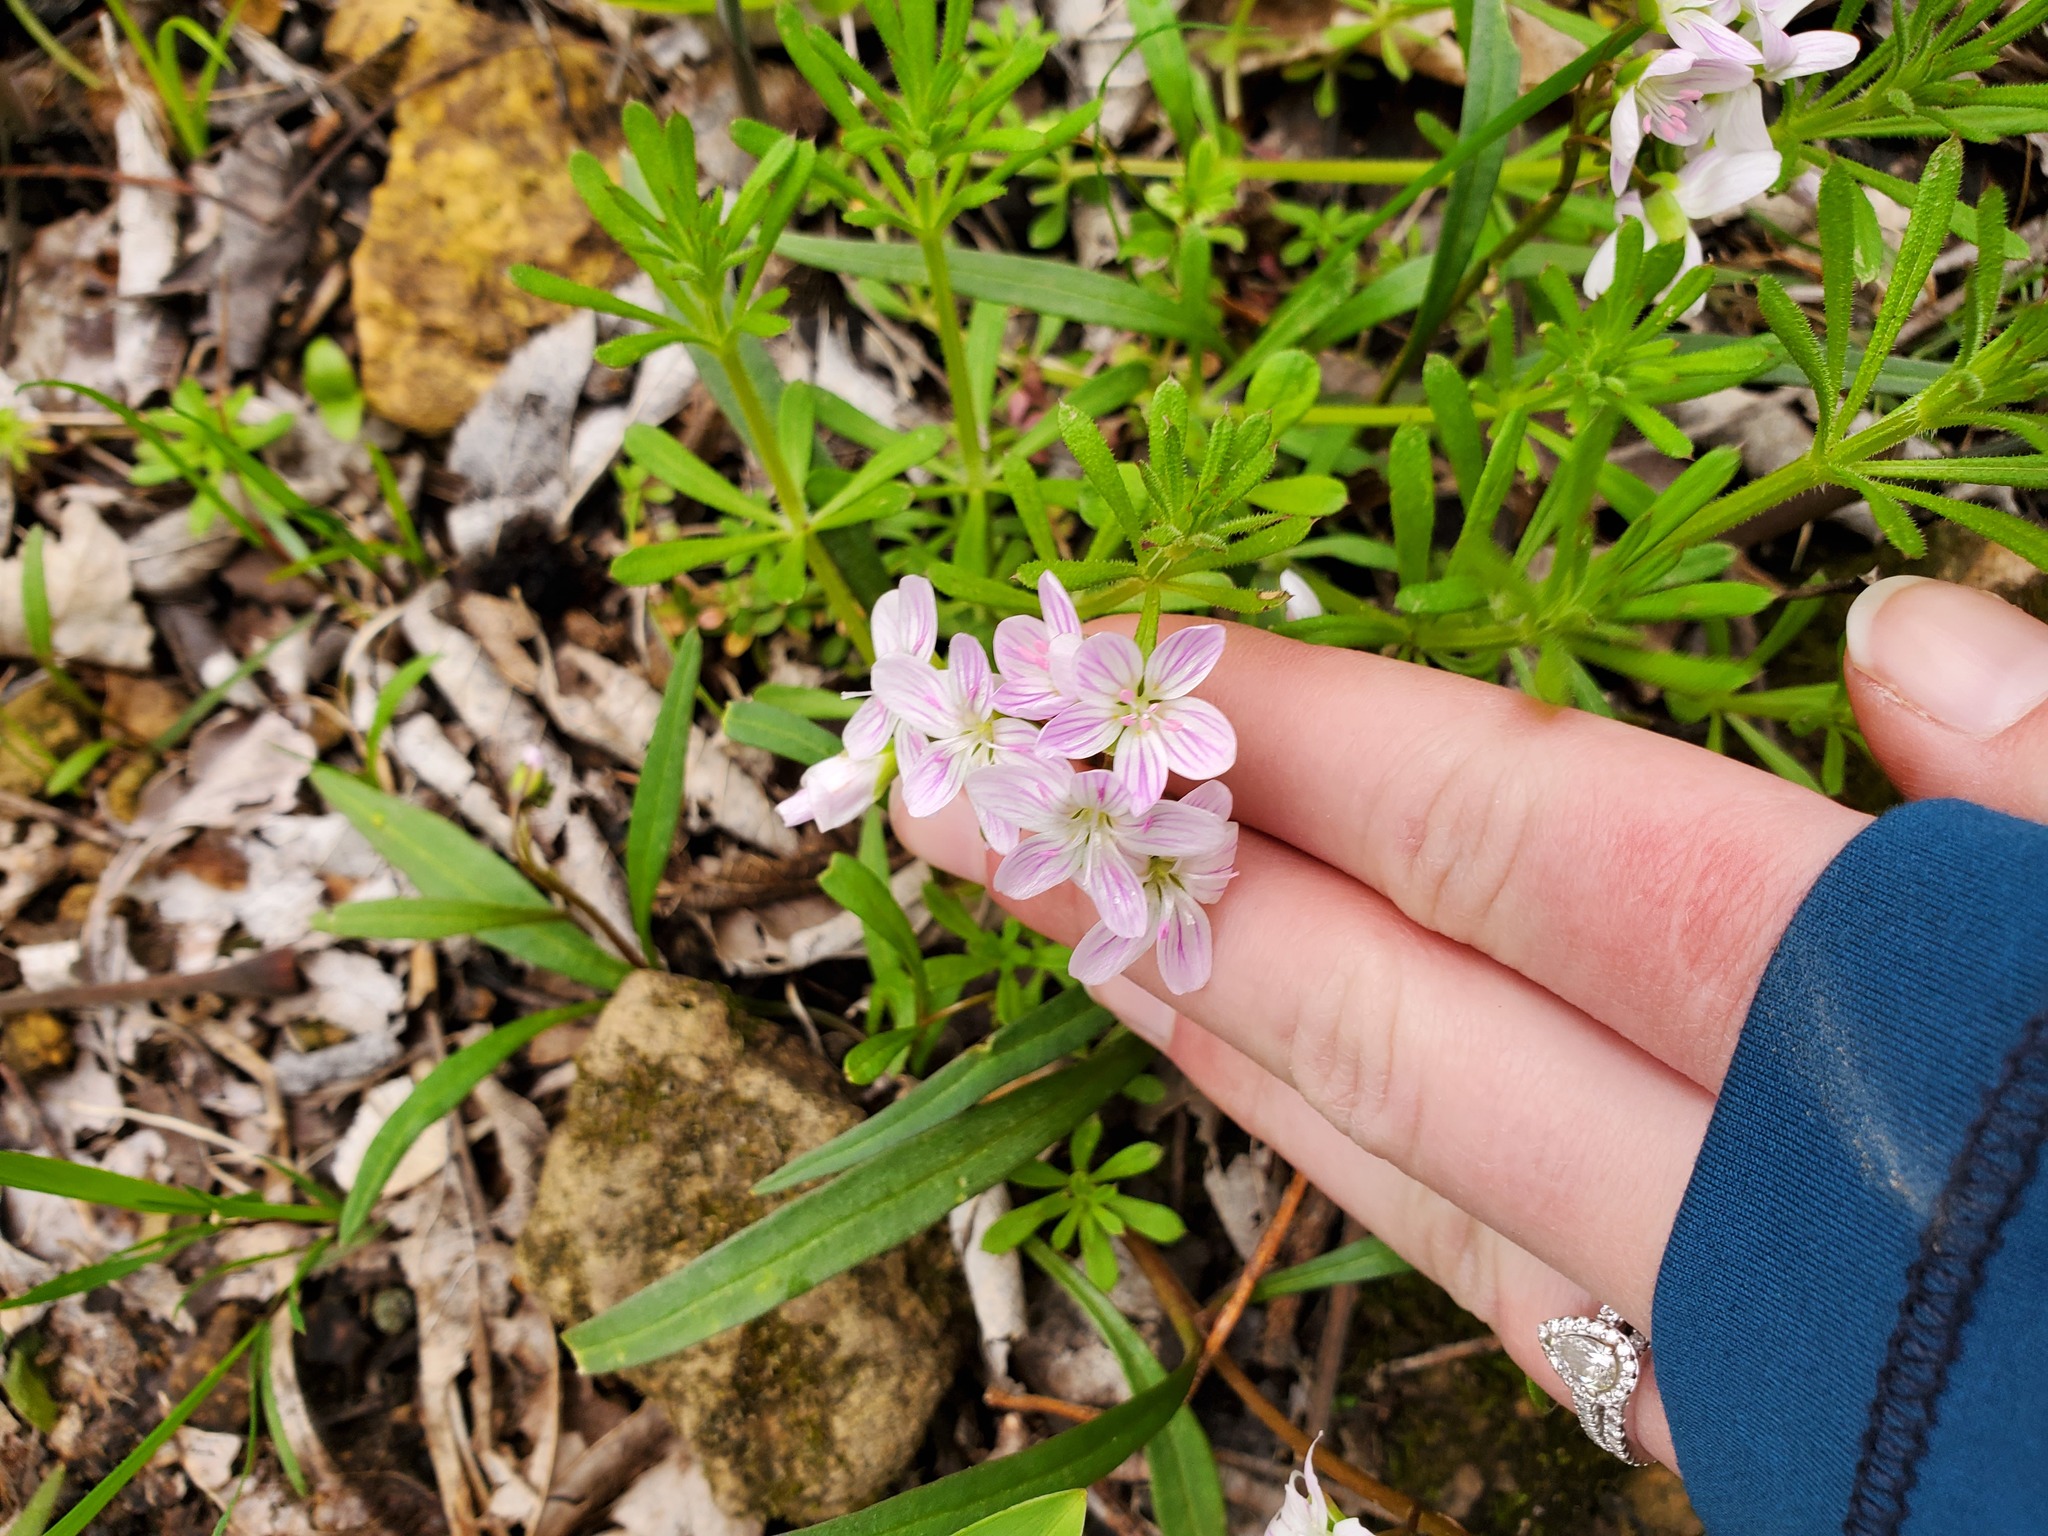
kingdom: Plantae
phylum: Tracheophyta
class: Magnoliopsida
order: Caryophyllales
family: Montiaceae
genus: Claytonia
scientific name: Claytonia virginica
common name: Virginia springbeauty
